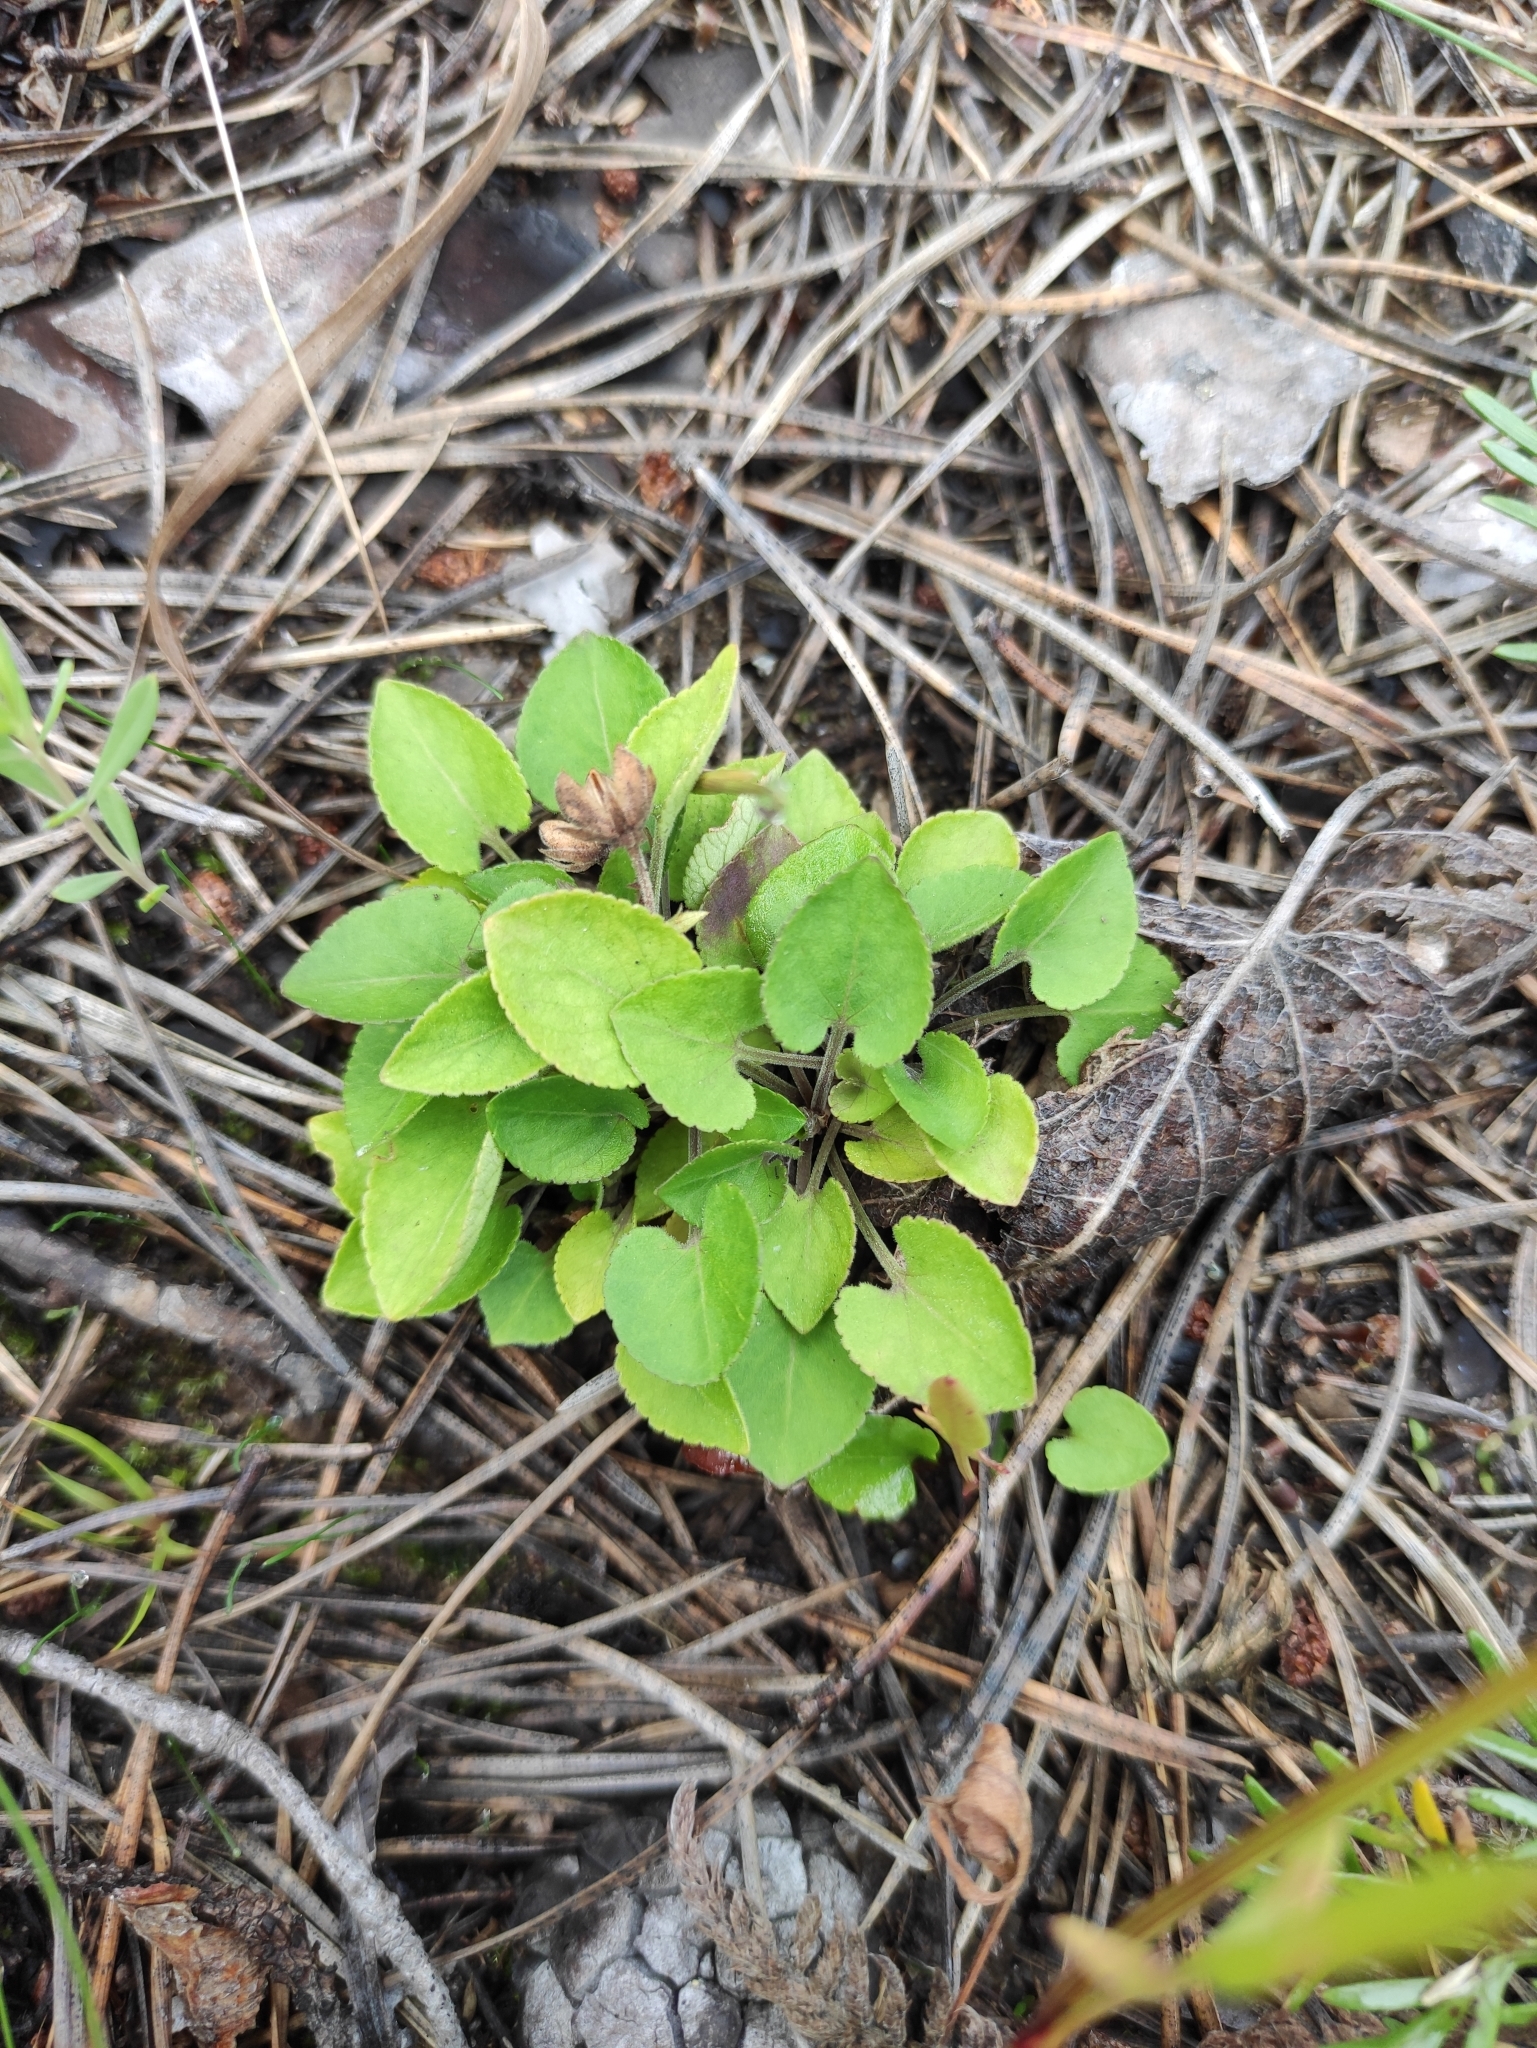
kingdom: Plantae
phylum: Tracheophyta
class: Magnoliopsida
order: Malpighiales
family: Violaceae
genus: Viola
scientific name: Viola rupestris
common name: Teesdale violet
